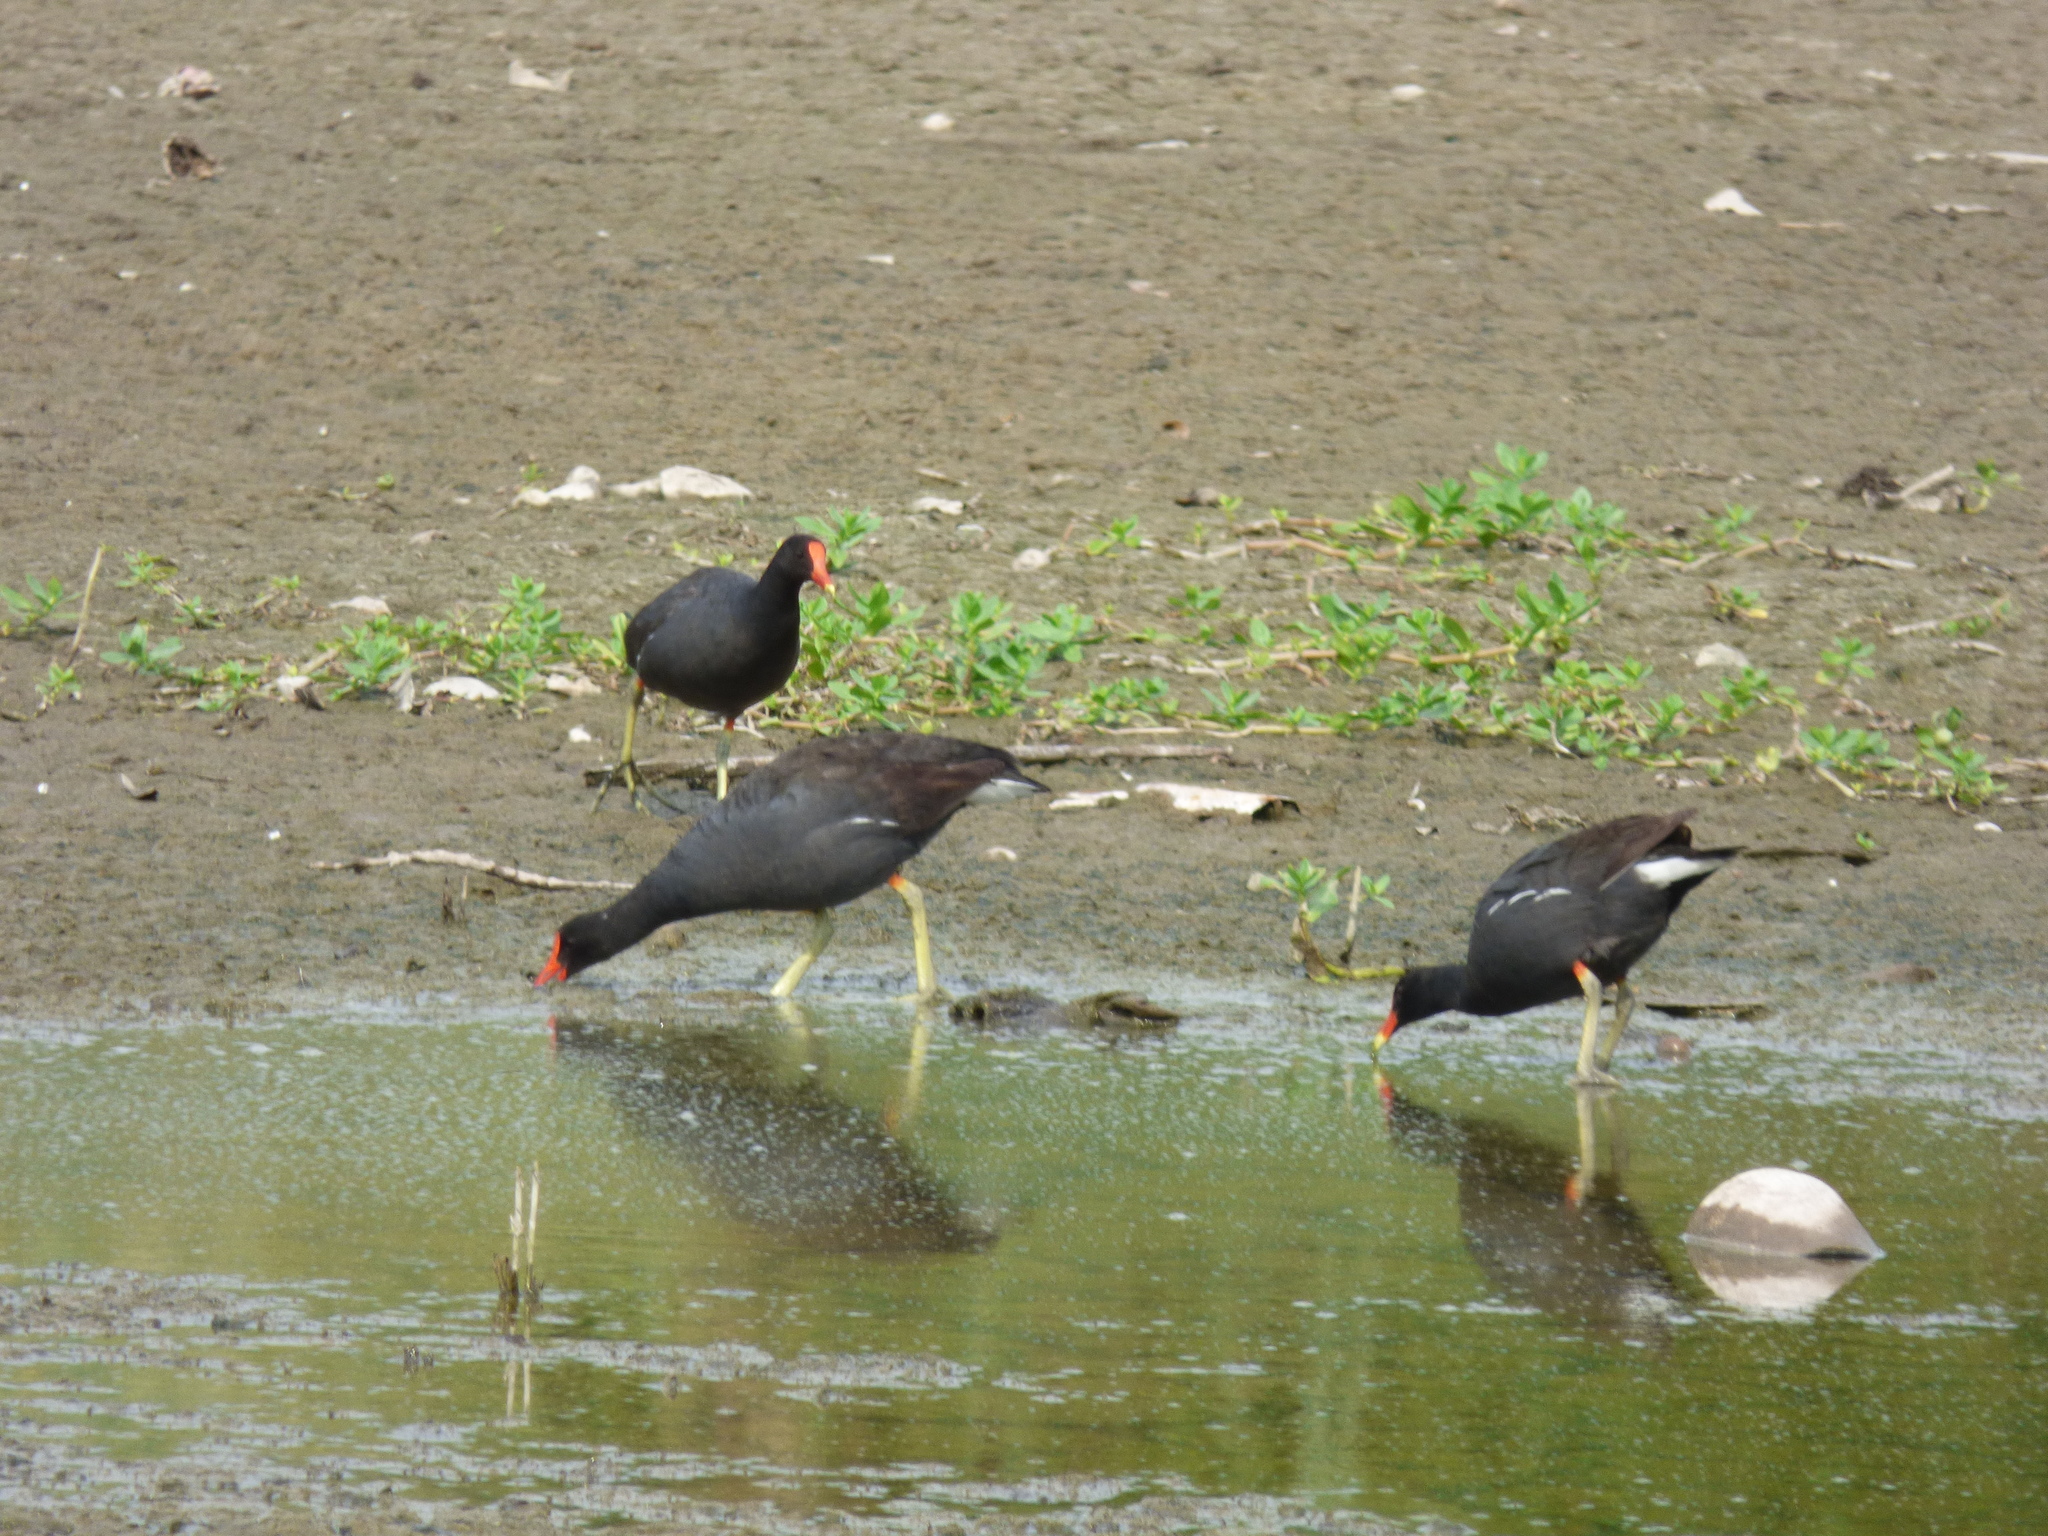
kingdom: Animalia
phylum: Chordata
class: Aves
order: Gruiformes
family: Rallidae
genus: Gallinula
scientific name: Gallinula chloropus
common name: Common moorhen
